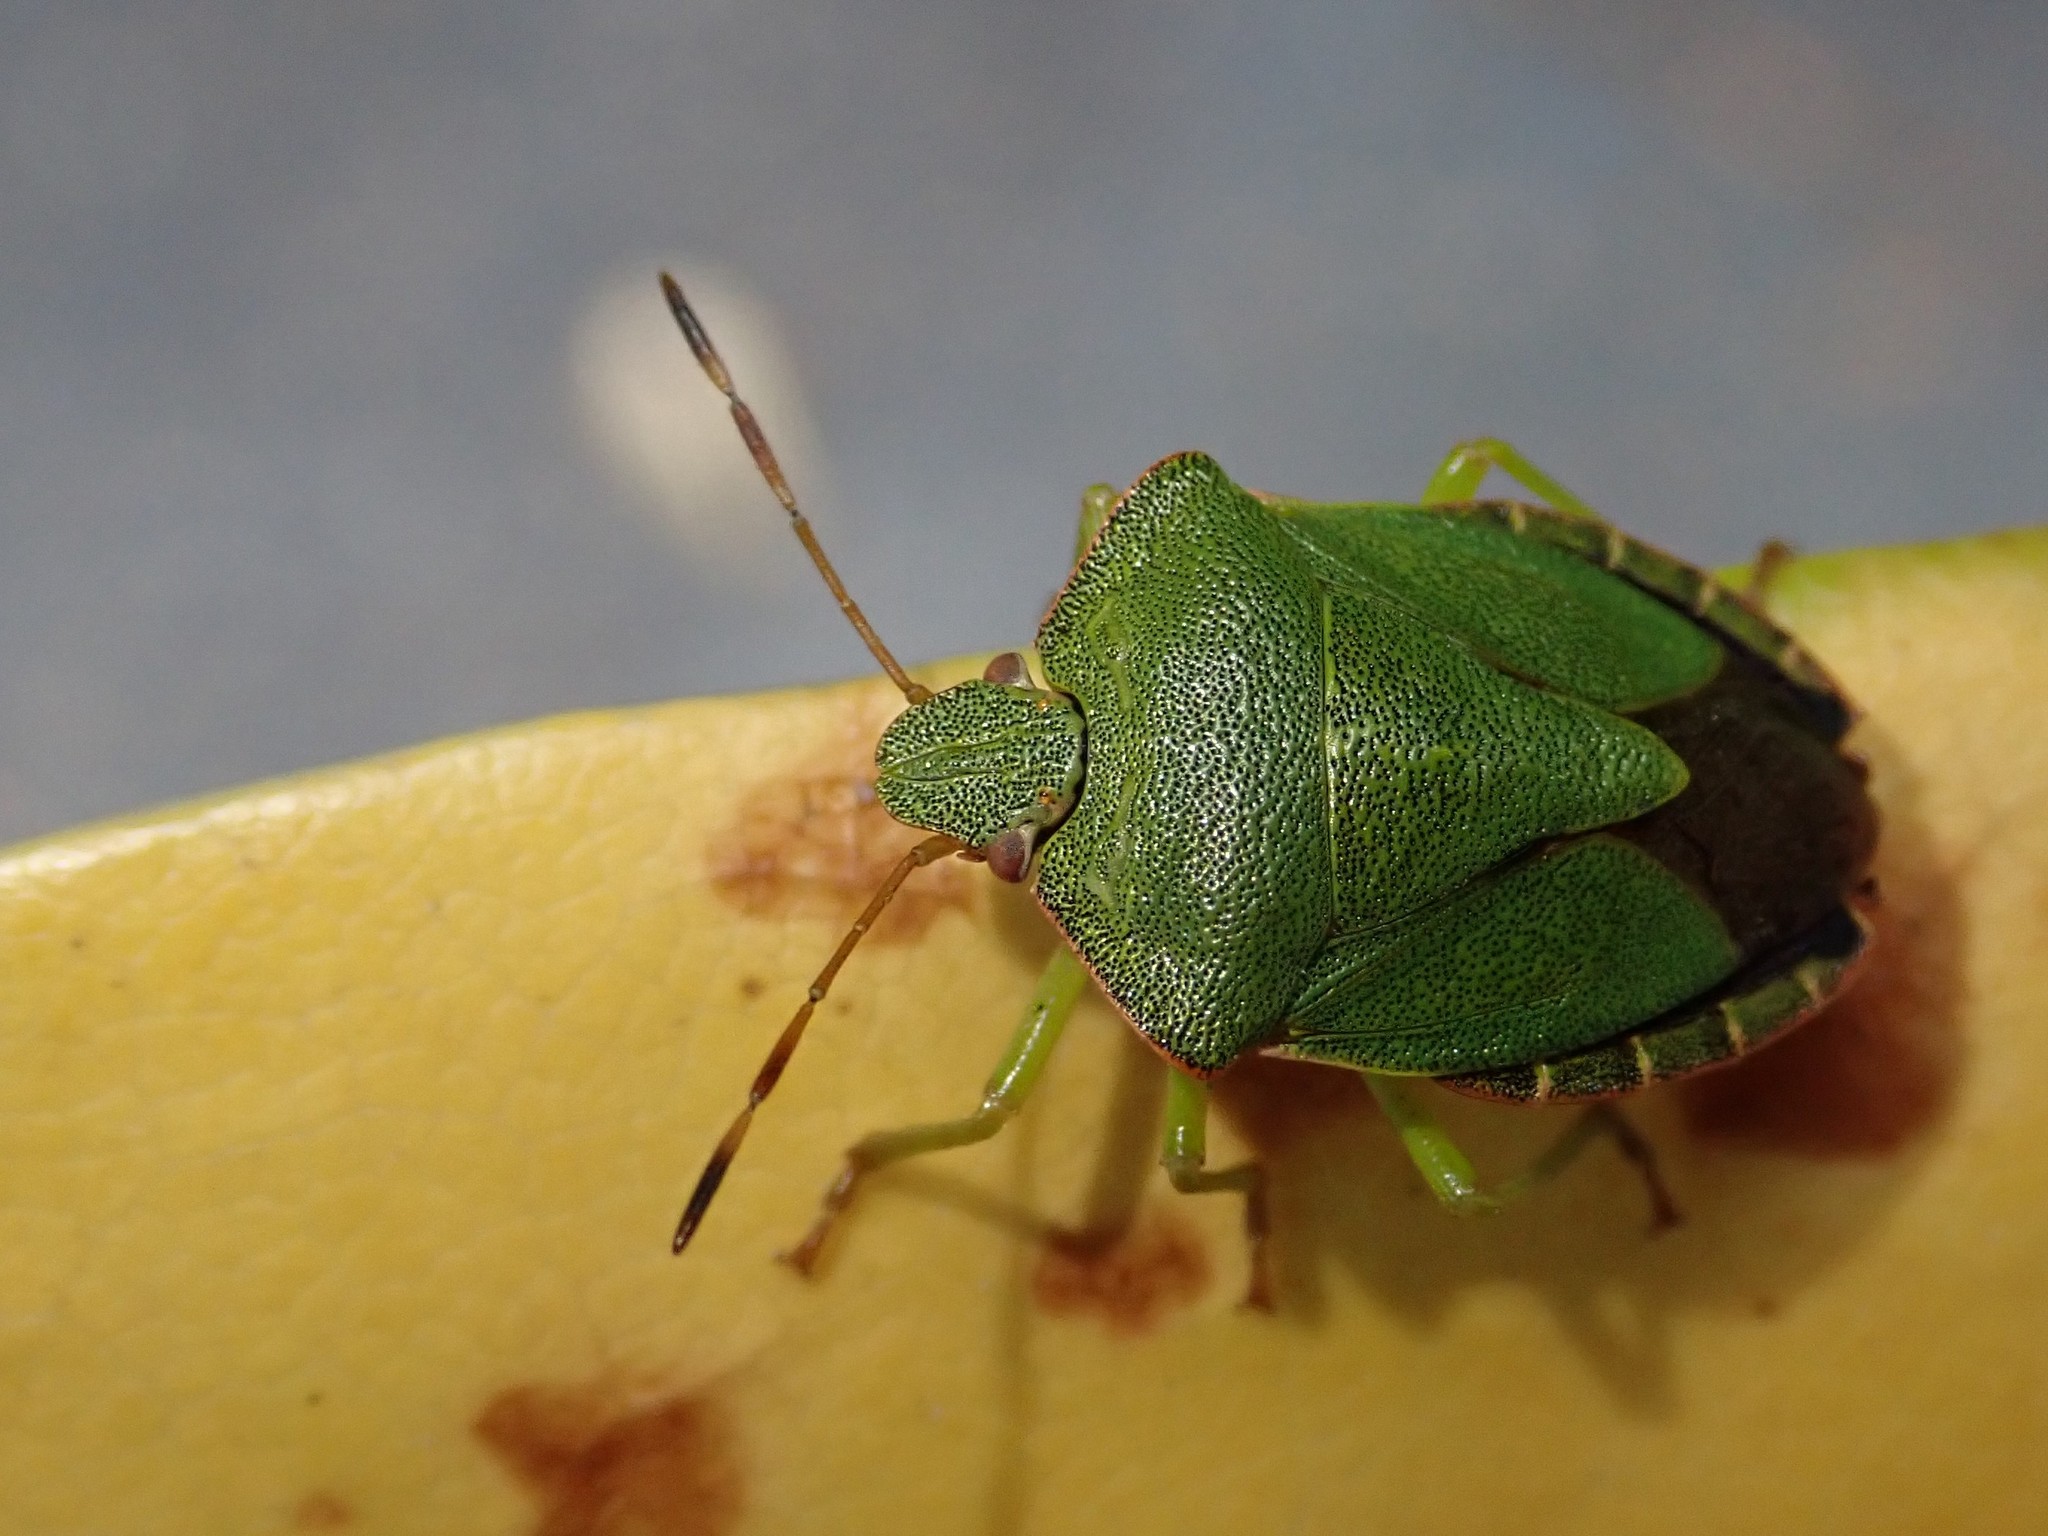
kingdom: Animalia
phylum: Arthropoda
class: Insecta
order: Hemiptera
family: Pentatomidae
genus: Palomena
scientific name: Palomena prasina
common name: Green shieldbug
